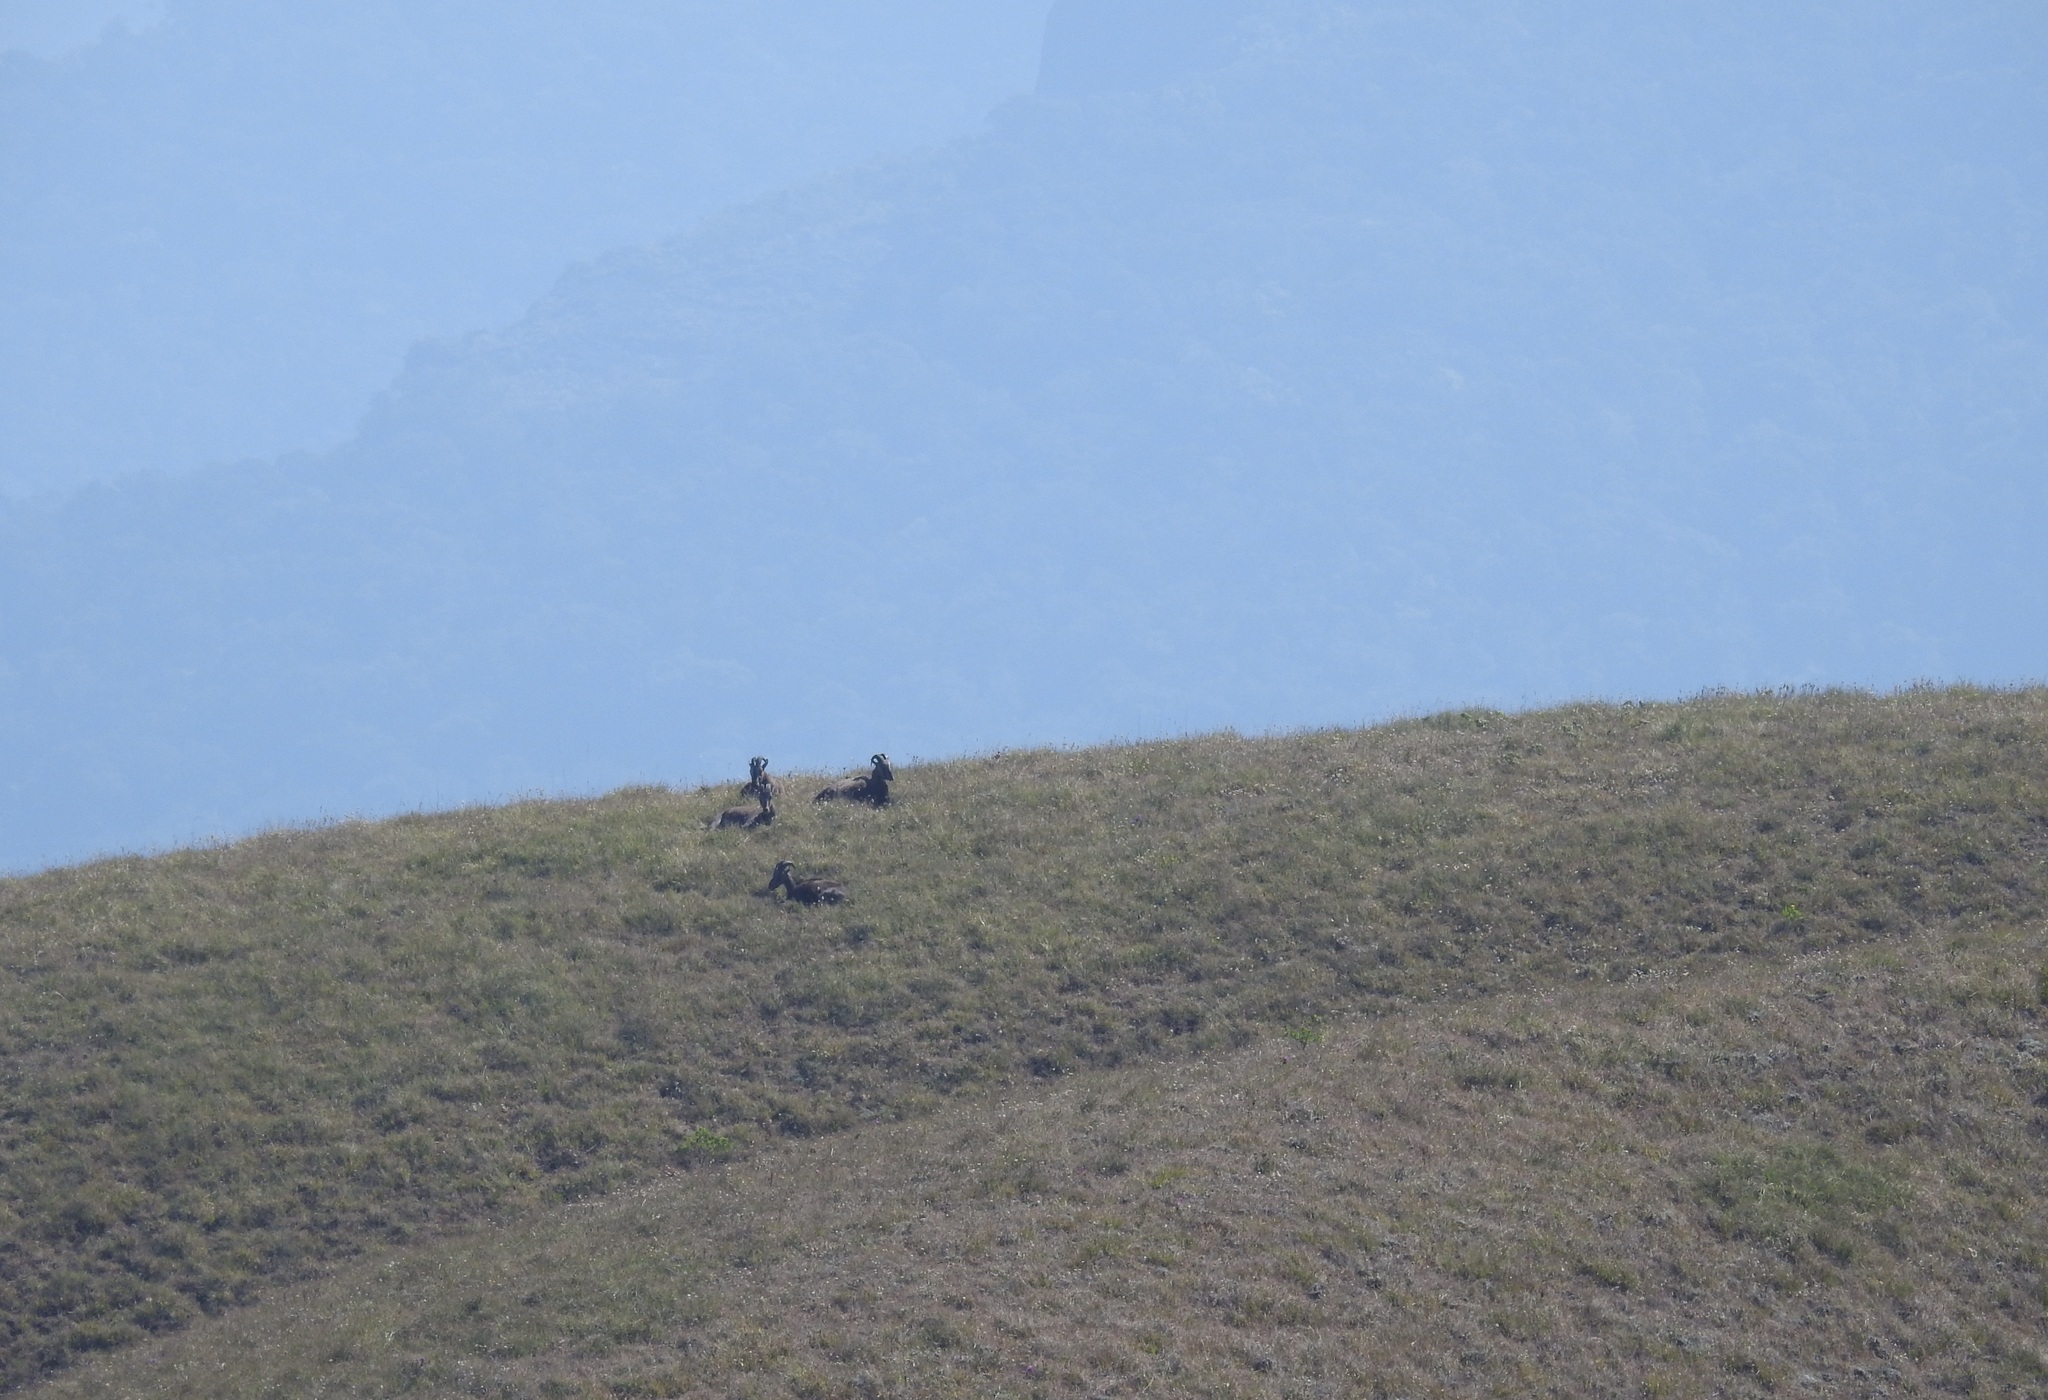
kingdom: Animalia
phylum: Chordata
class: Mammalia
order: Artiodactyla
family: Bovidae
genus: Hemitragus
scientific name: Hemitragus hylocrius
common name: Nilgiri tahr
